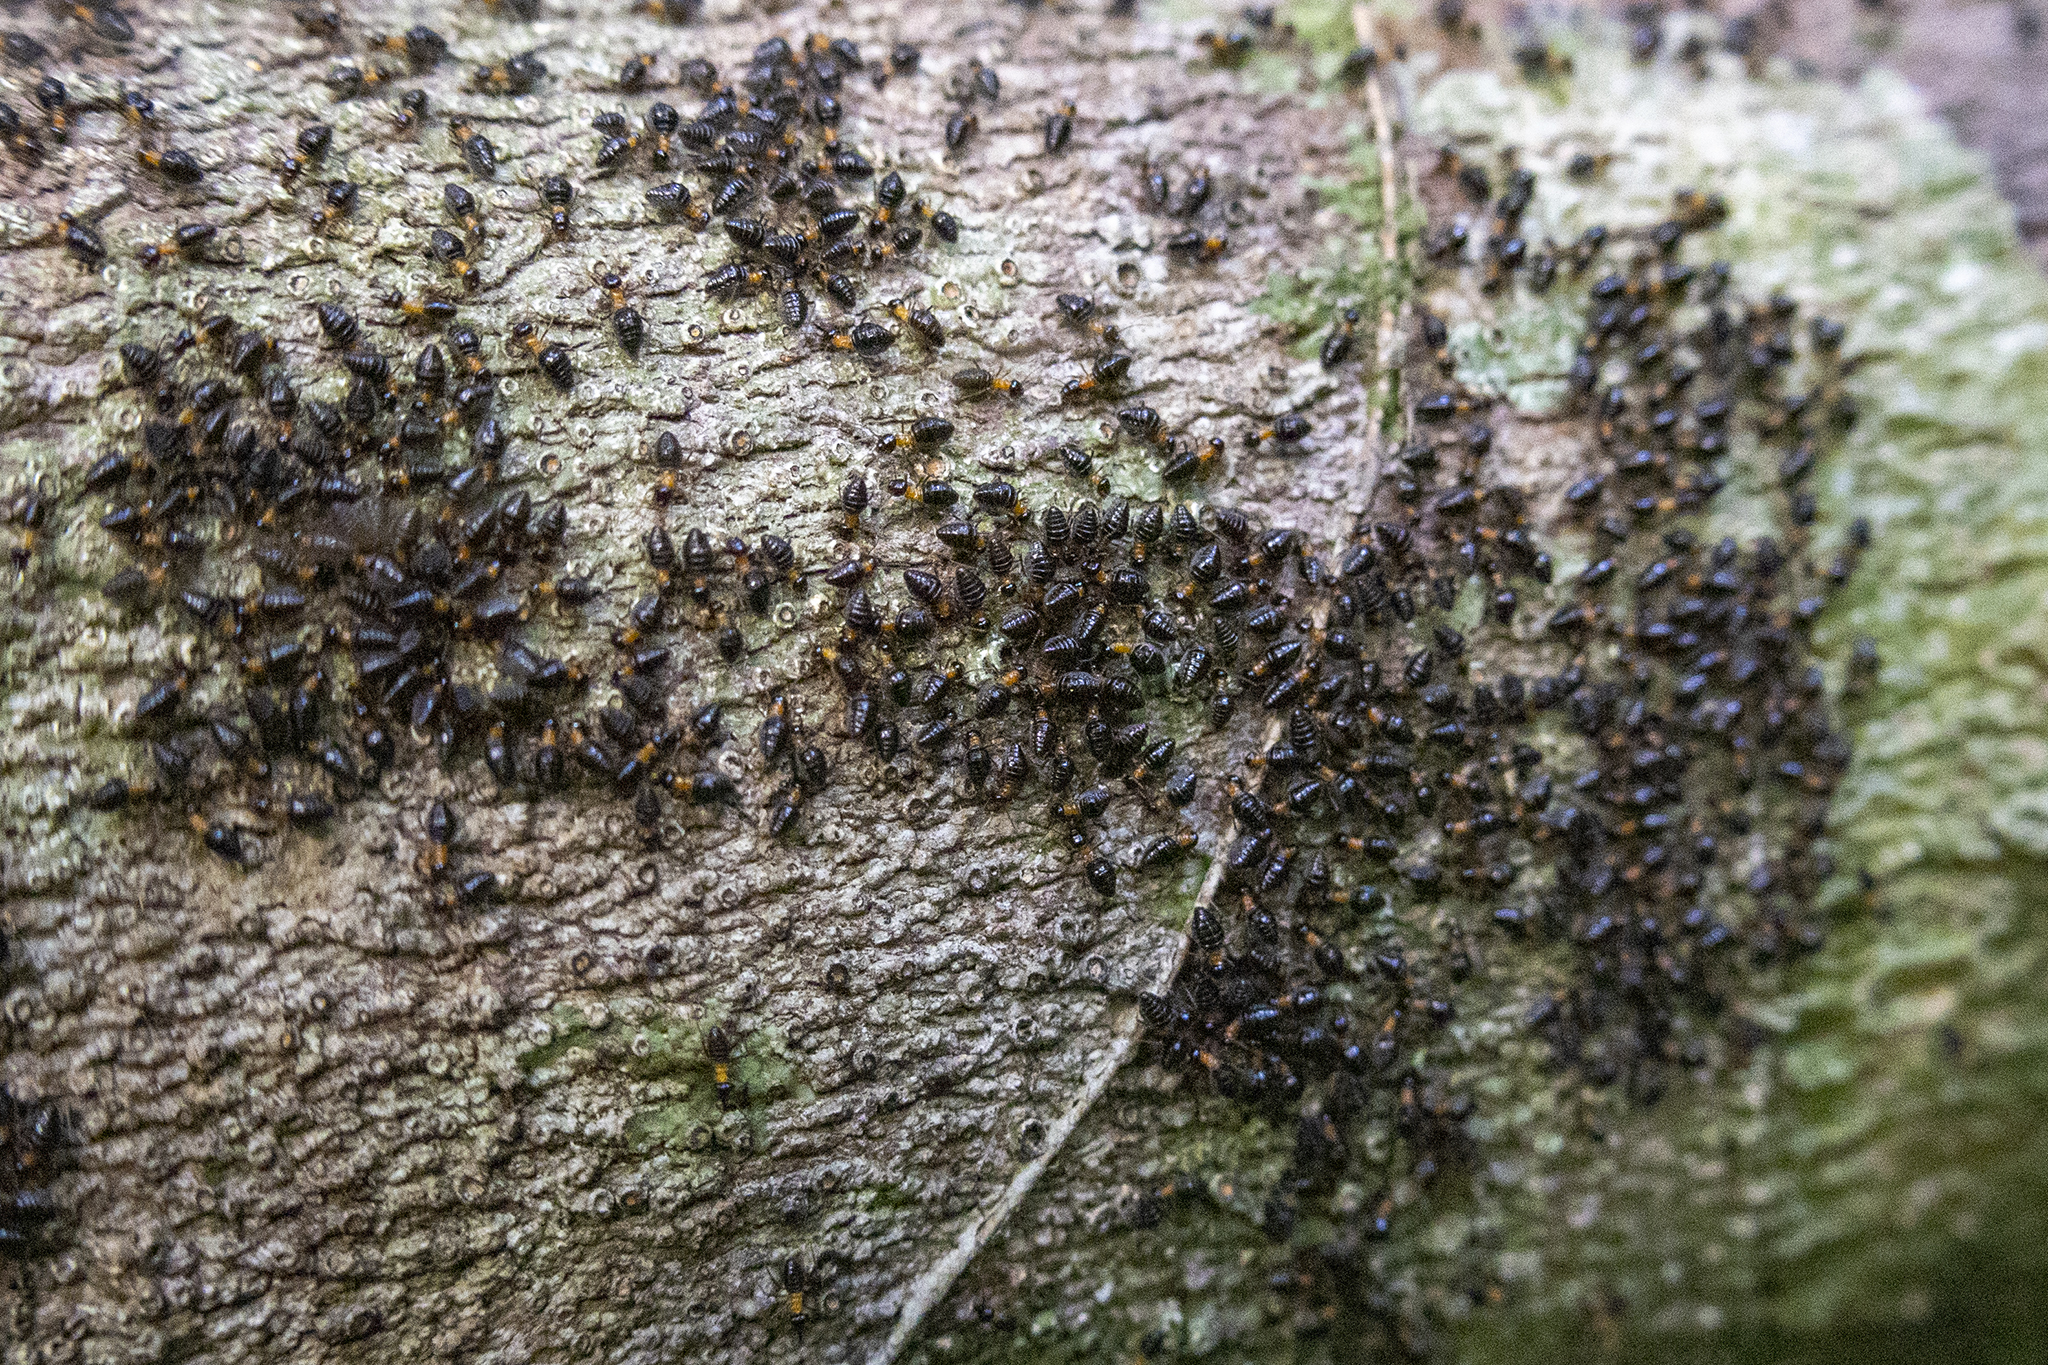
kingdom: Animalia
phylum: Arthropoda
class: Insecta
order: Blattodea
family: Termitidae
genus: Constrictotermes
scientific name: Constrictotermes cavifrons
